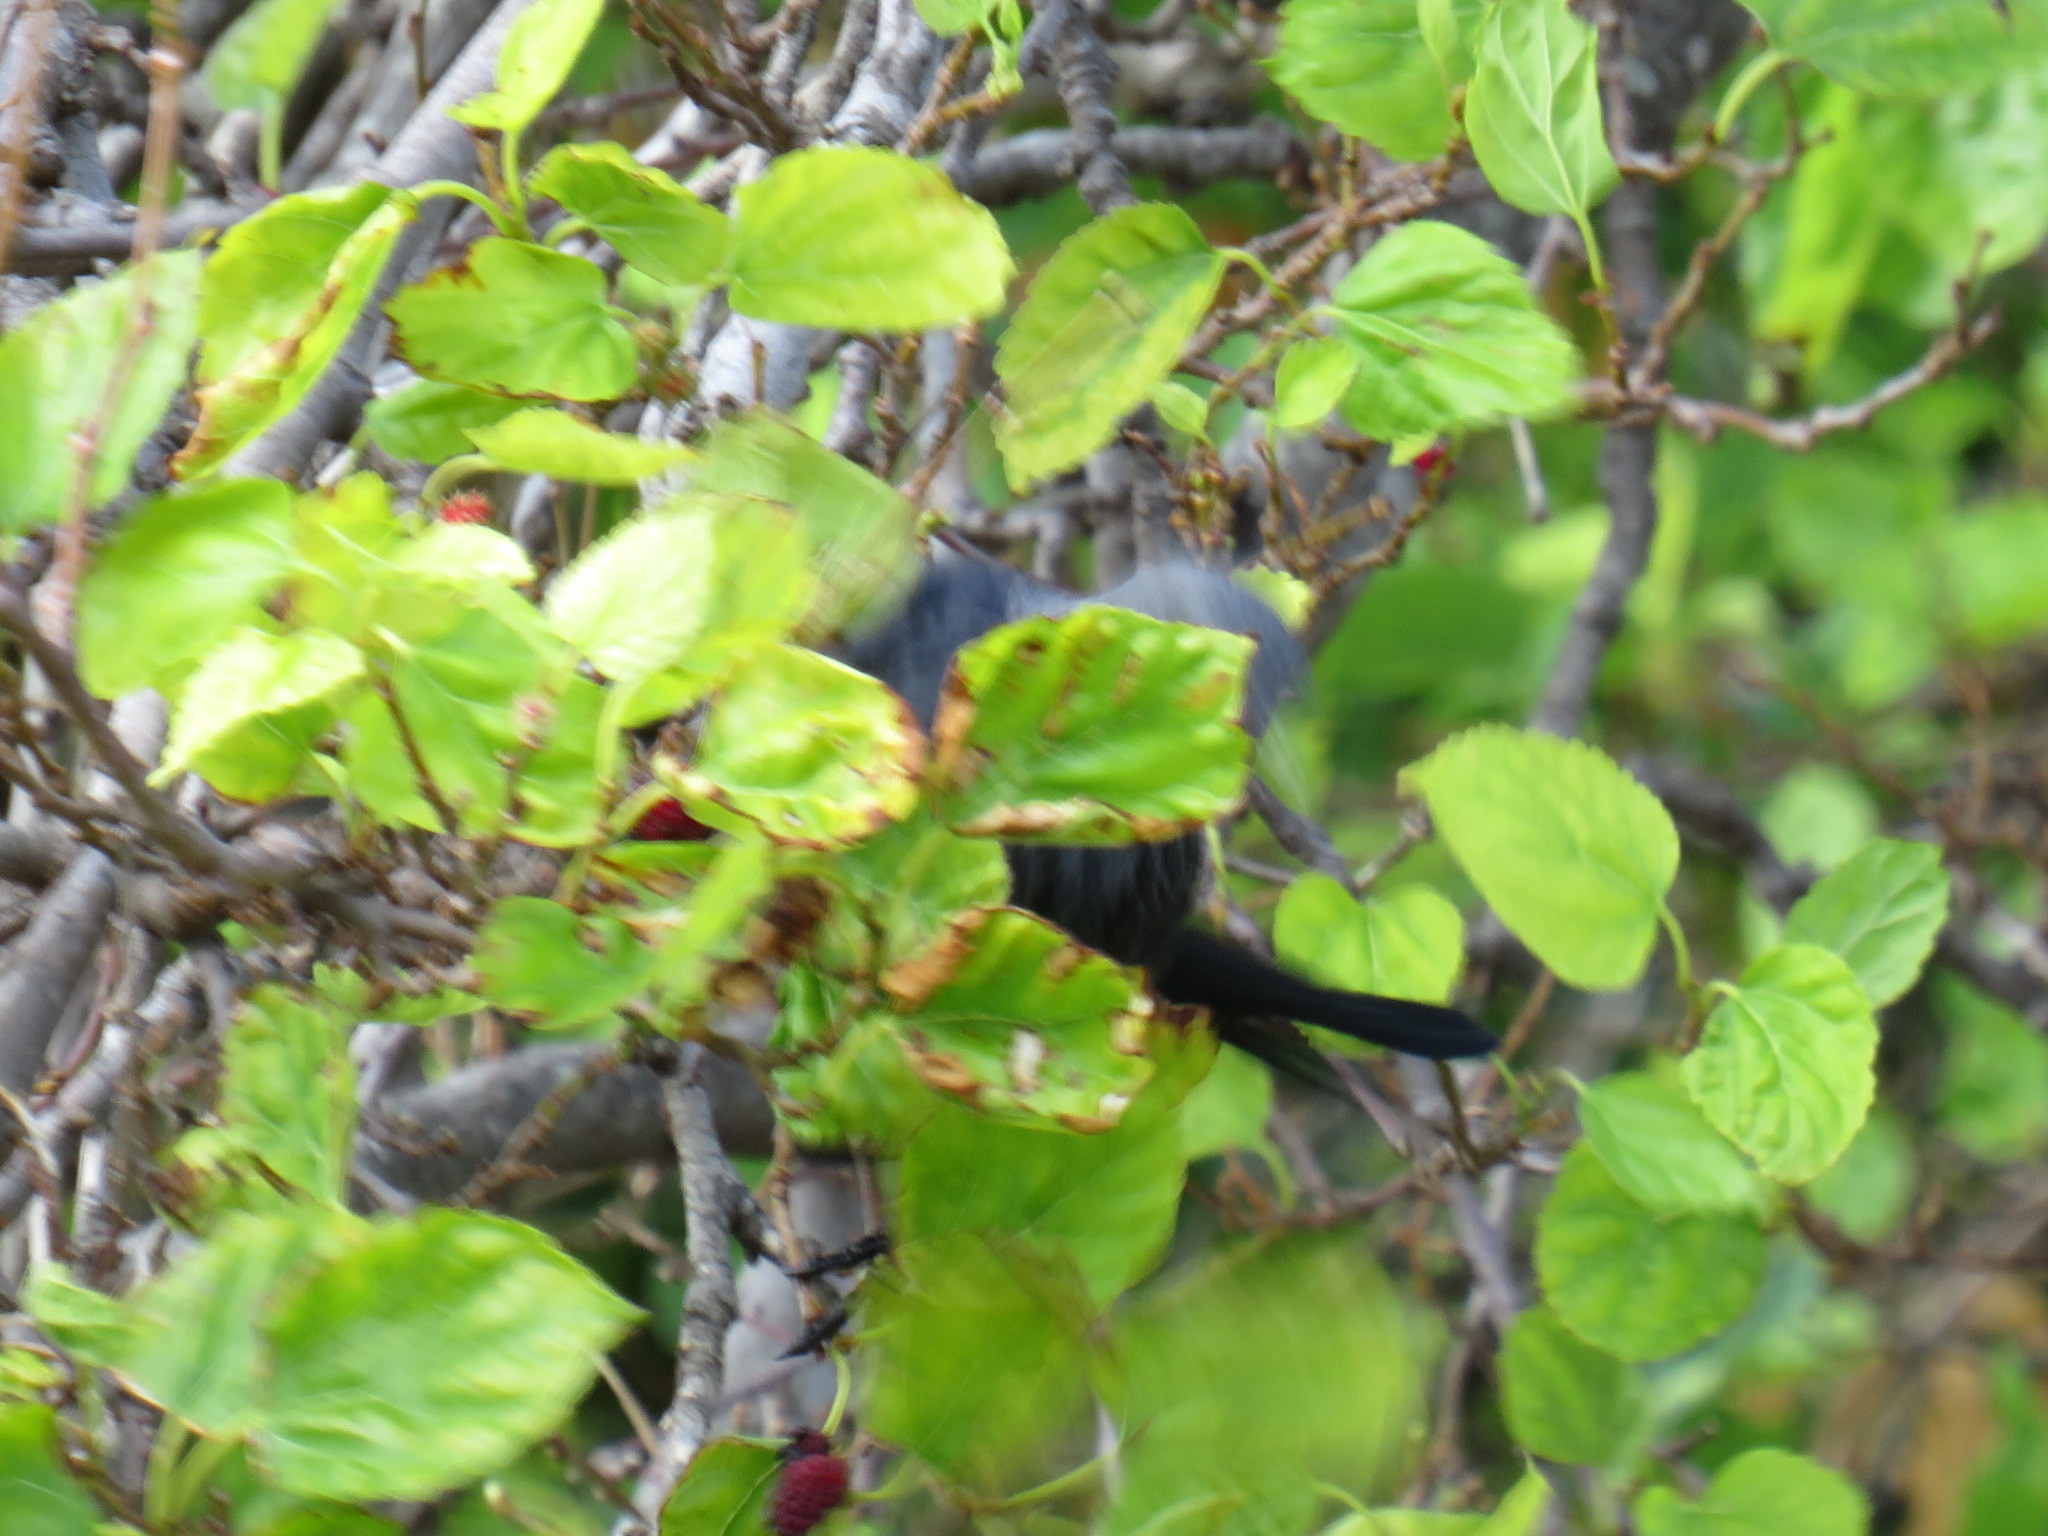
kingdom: Animalia
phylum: Chordata
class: Aves
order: Passeriformes
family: Sturnidae
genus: Onychognathus
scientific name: Onychognathus morio
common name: Red-winged starling
